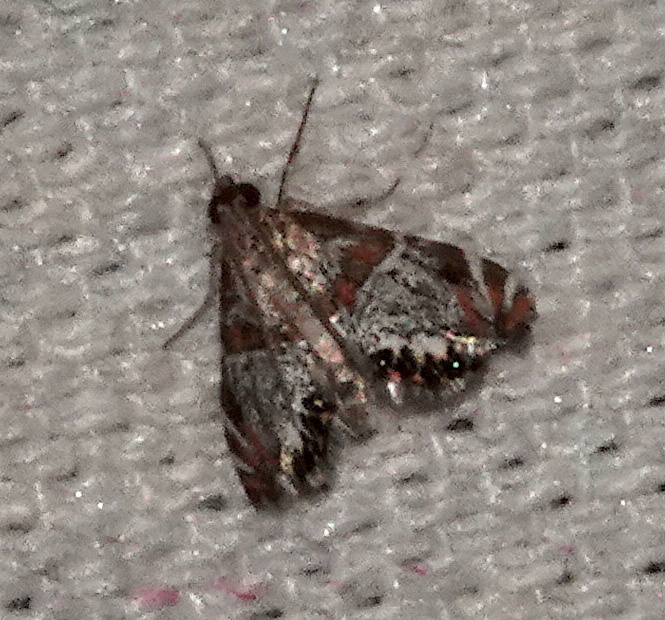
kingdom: Animalia
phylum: Arthropoda
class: Insecta
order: Lepidoptera
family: Crambidae
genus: Petrophila
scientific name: Petrophila jaliscalis
